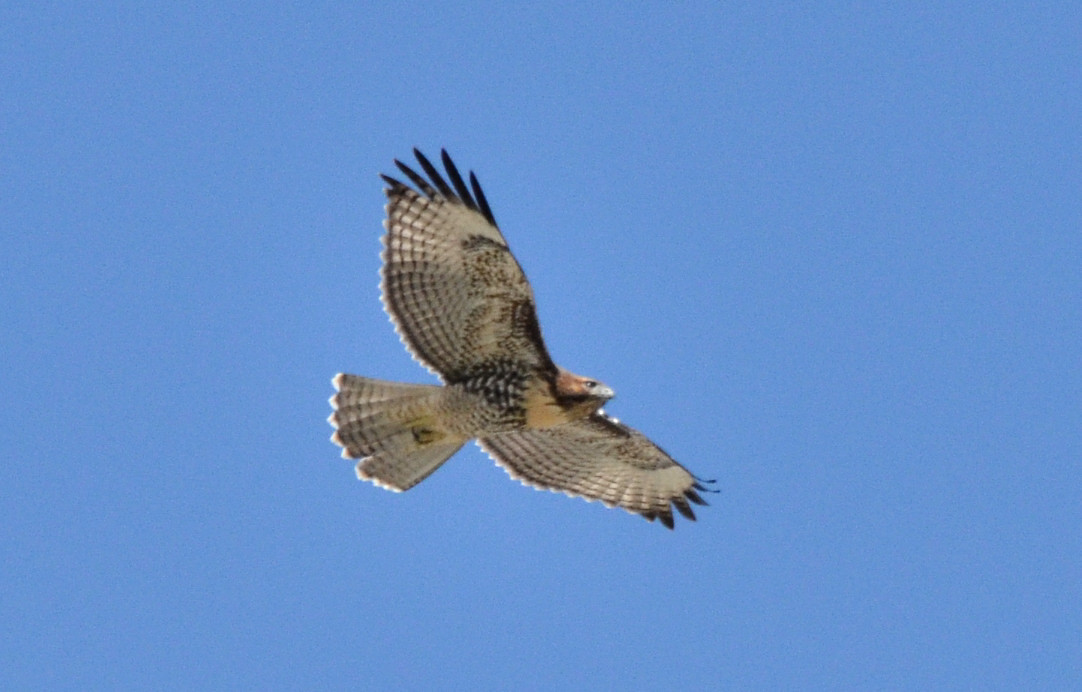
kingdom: Animalia
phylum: Chordata
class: Aves
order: Accipitriformes
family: Accipitridae
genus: Buteo
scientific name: Buteo jamaicensis
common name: Red-tailed hawk
